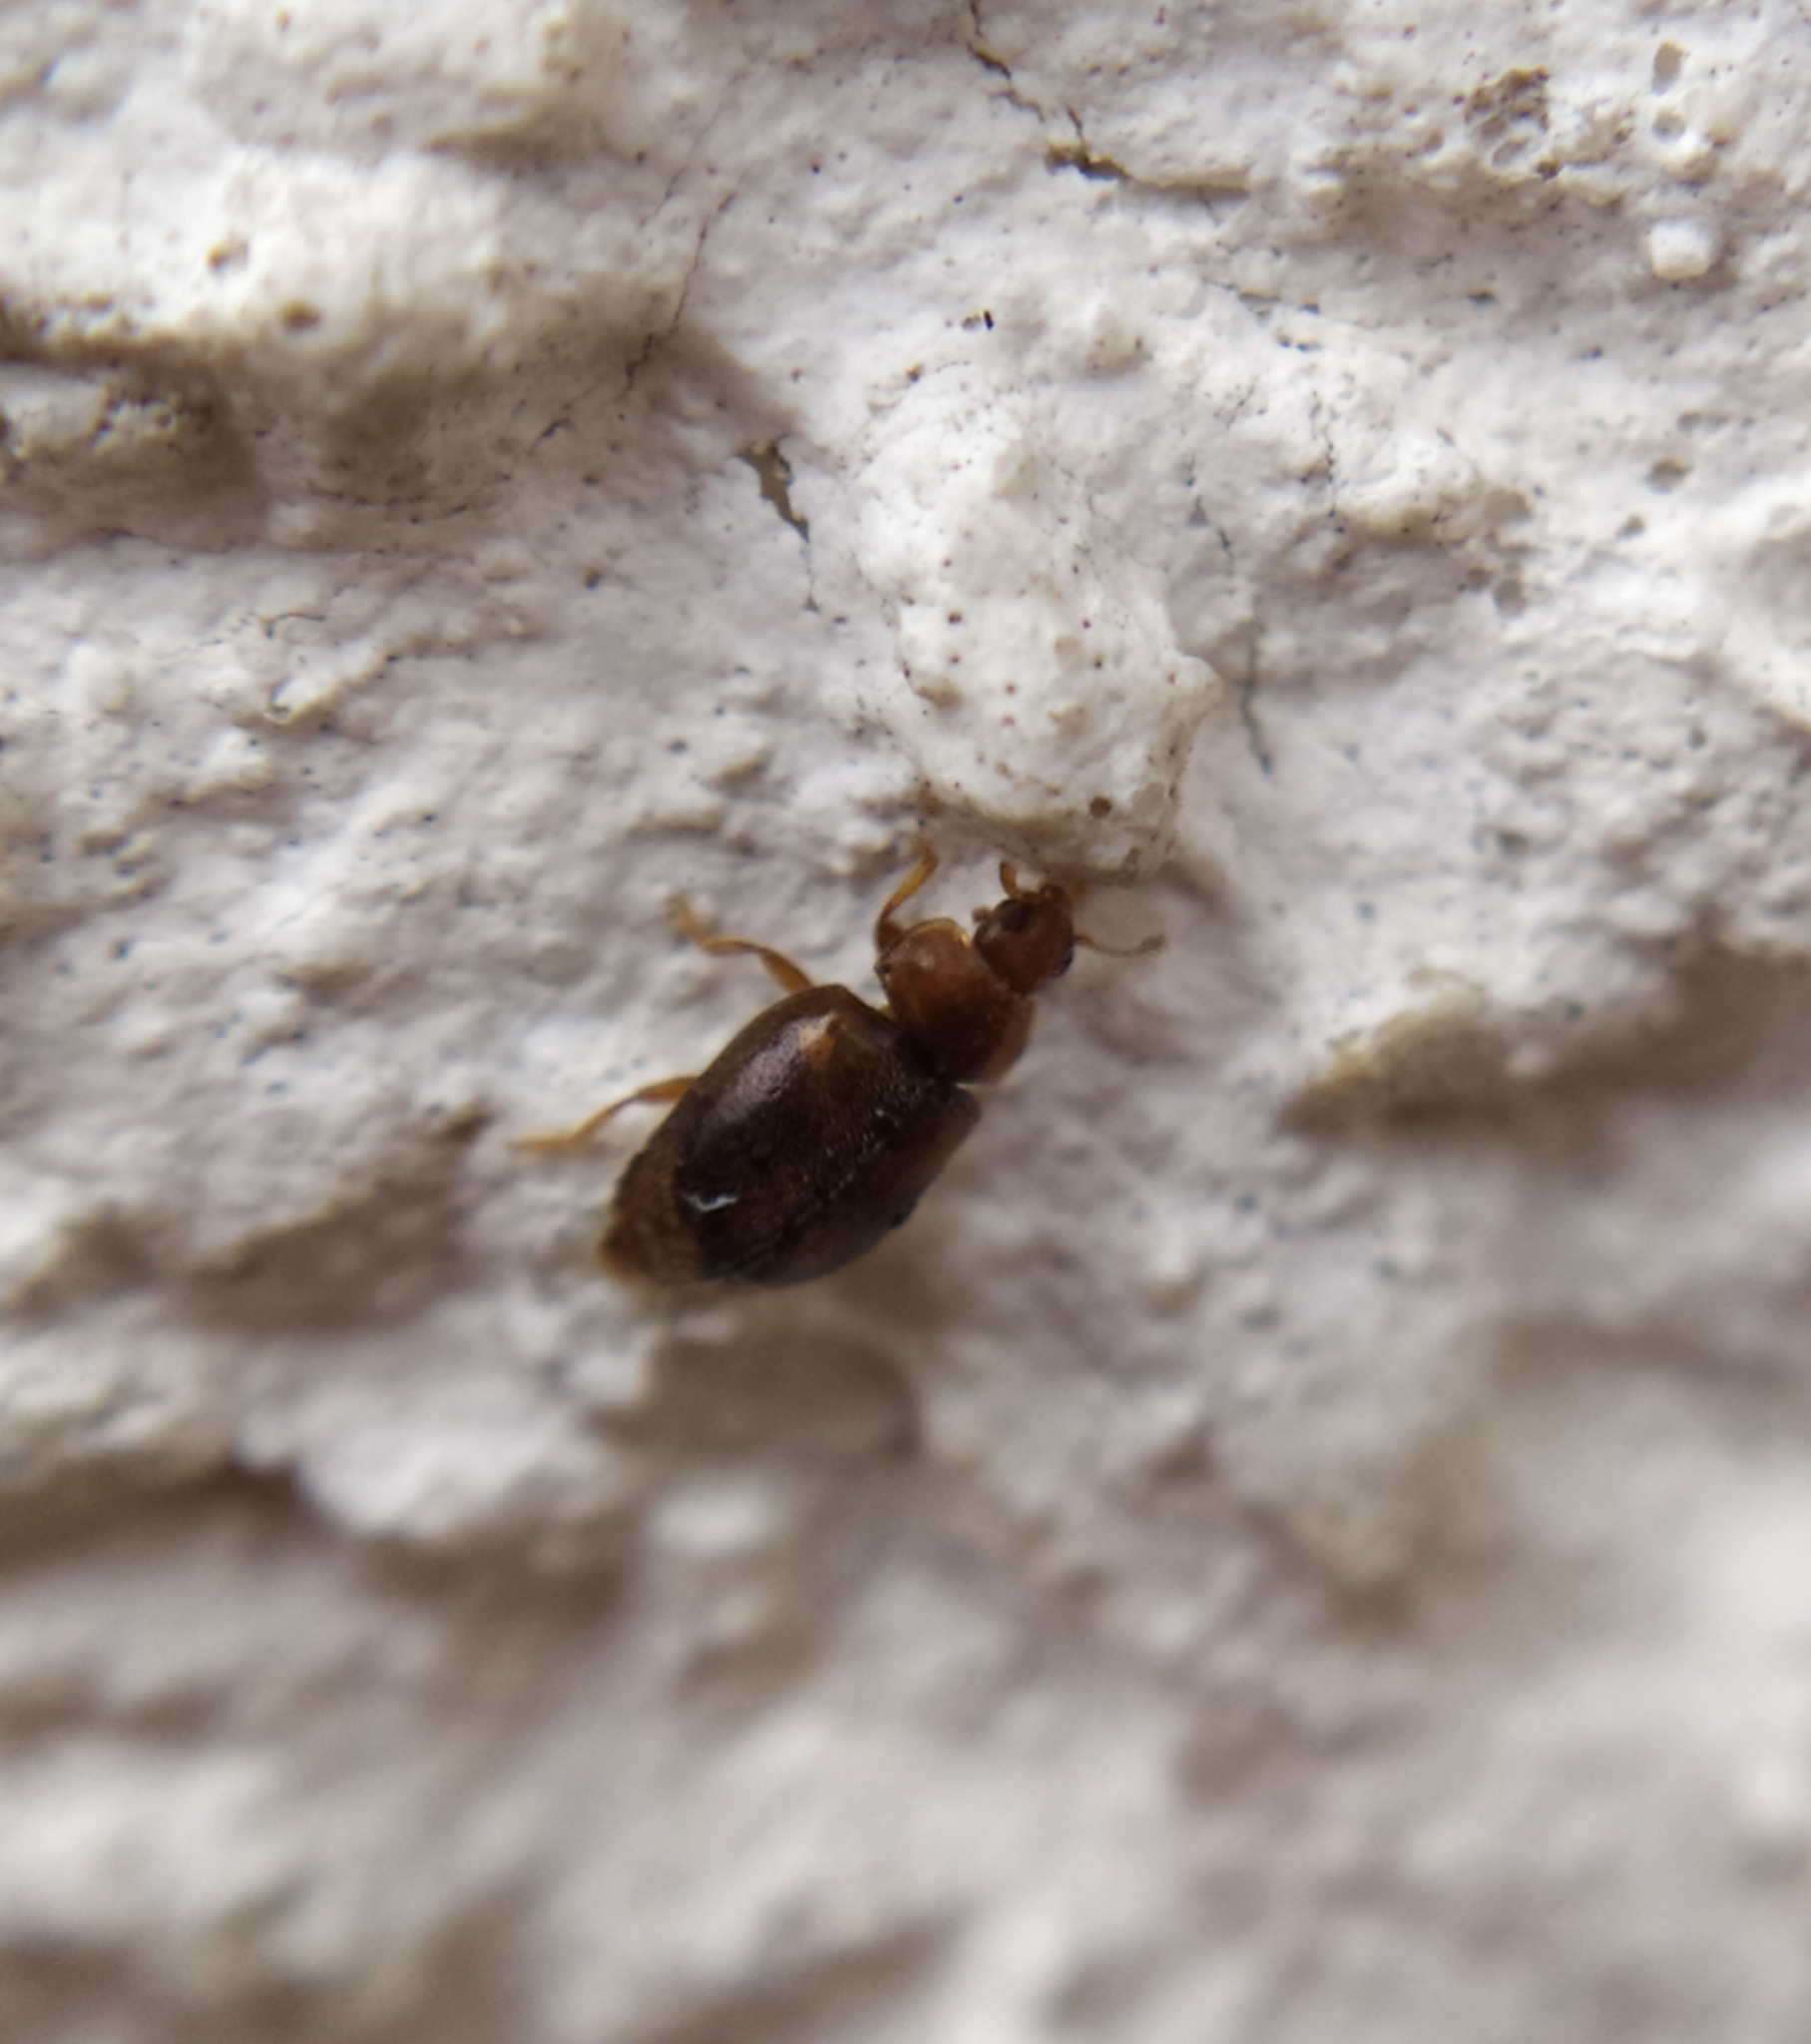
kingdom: Animalia
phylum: Arthropoda
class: Insecta
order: Coleoptera
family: Coccinellidae
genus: Rhyzobius
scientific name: Rhyzobius chrysomeloides
